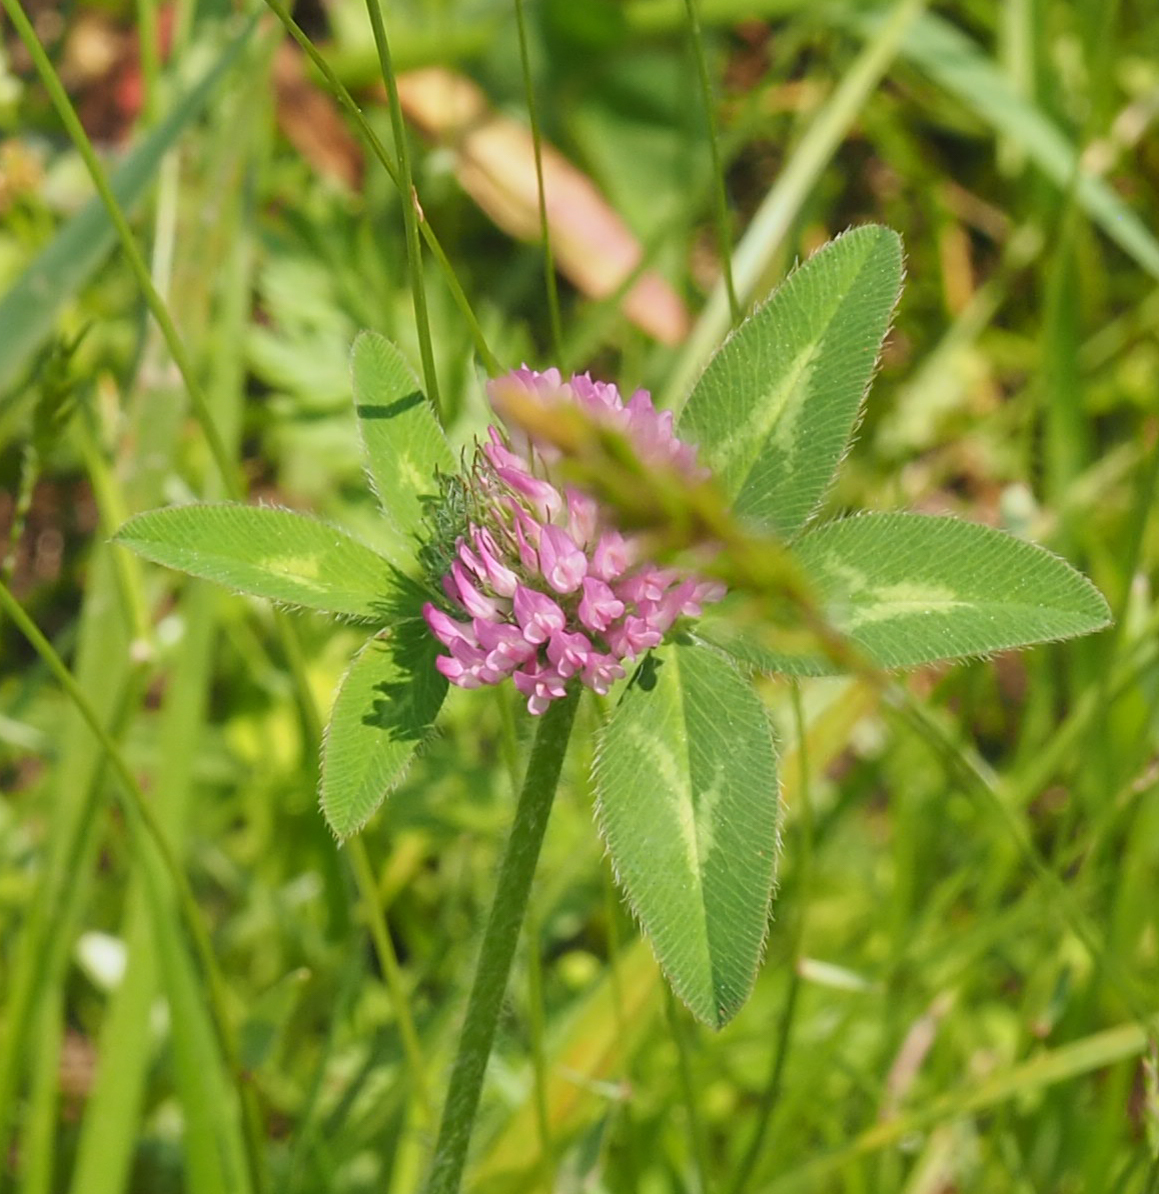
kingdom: Plantae
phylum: Tracheophyta
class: Magnoliopsida
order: Fabales
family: Fabaceae
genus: Trifolium
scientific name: Trifolium pratense
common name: Red clover
